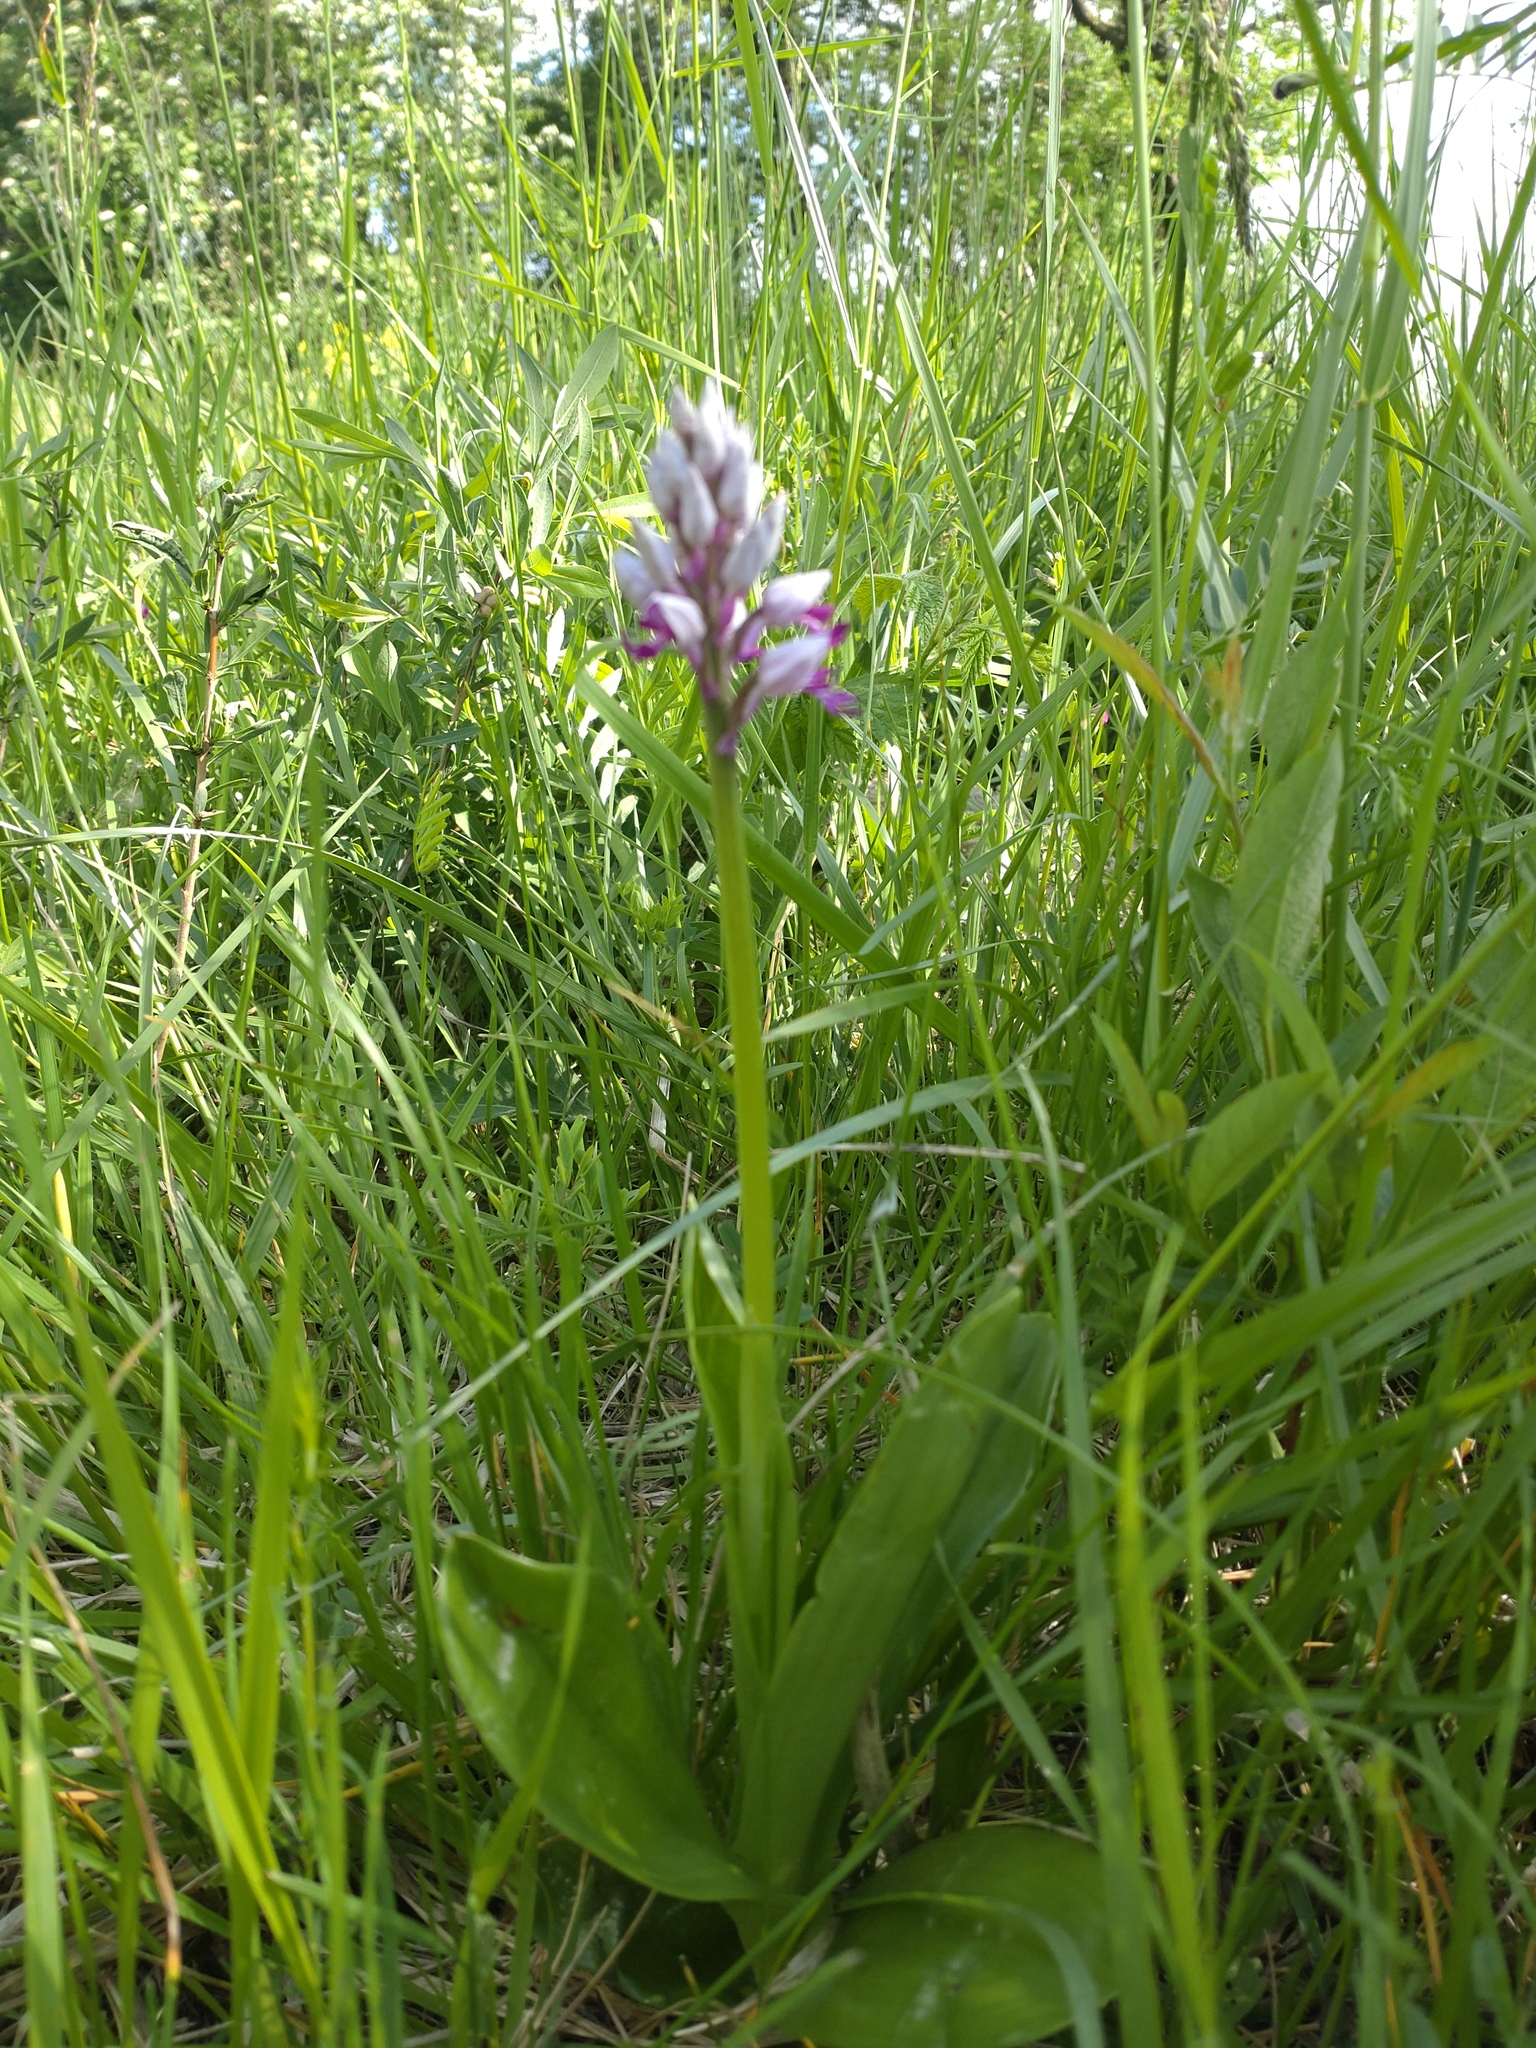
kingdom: Plantae
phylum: Tracheophyta
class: Liliopsida
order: Asparagales
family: Orchidaceae
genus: Orchis
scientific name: Orchis militaris
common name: Military orchid
